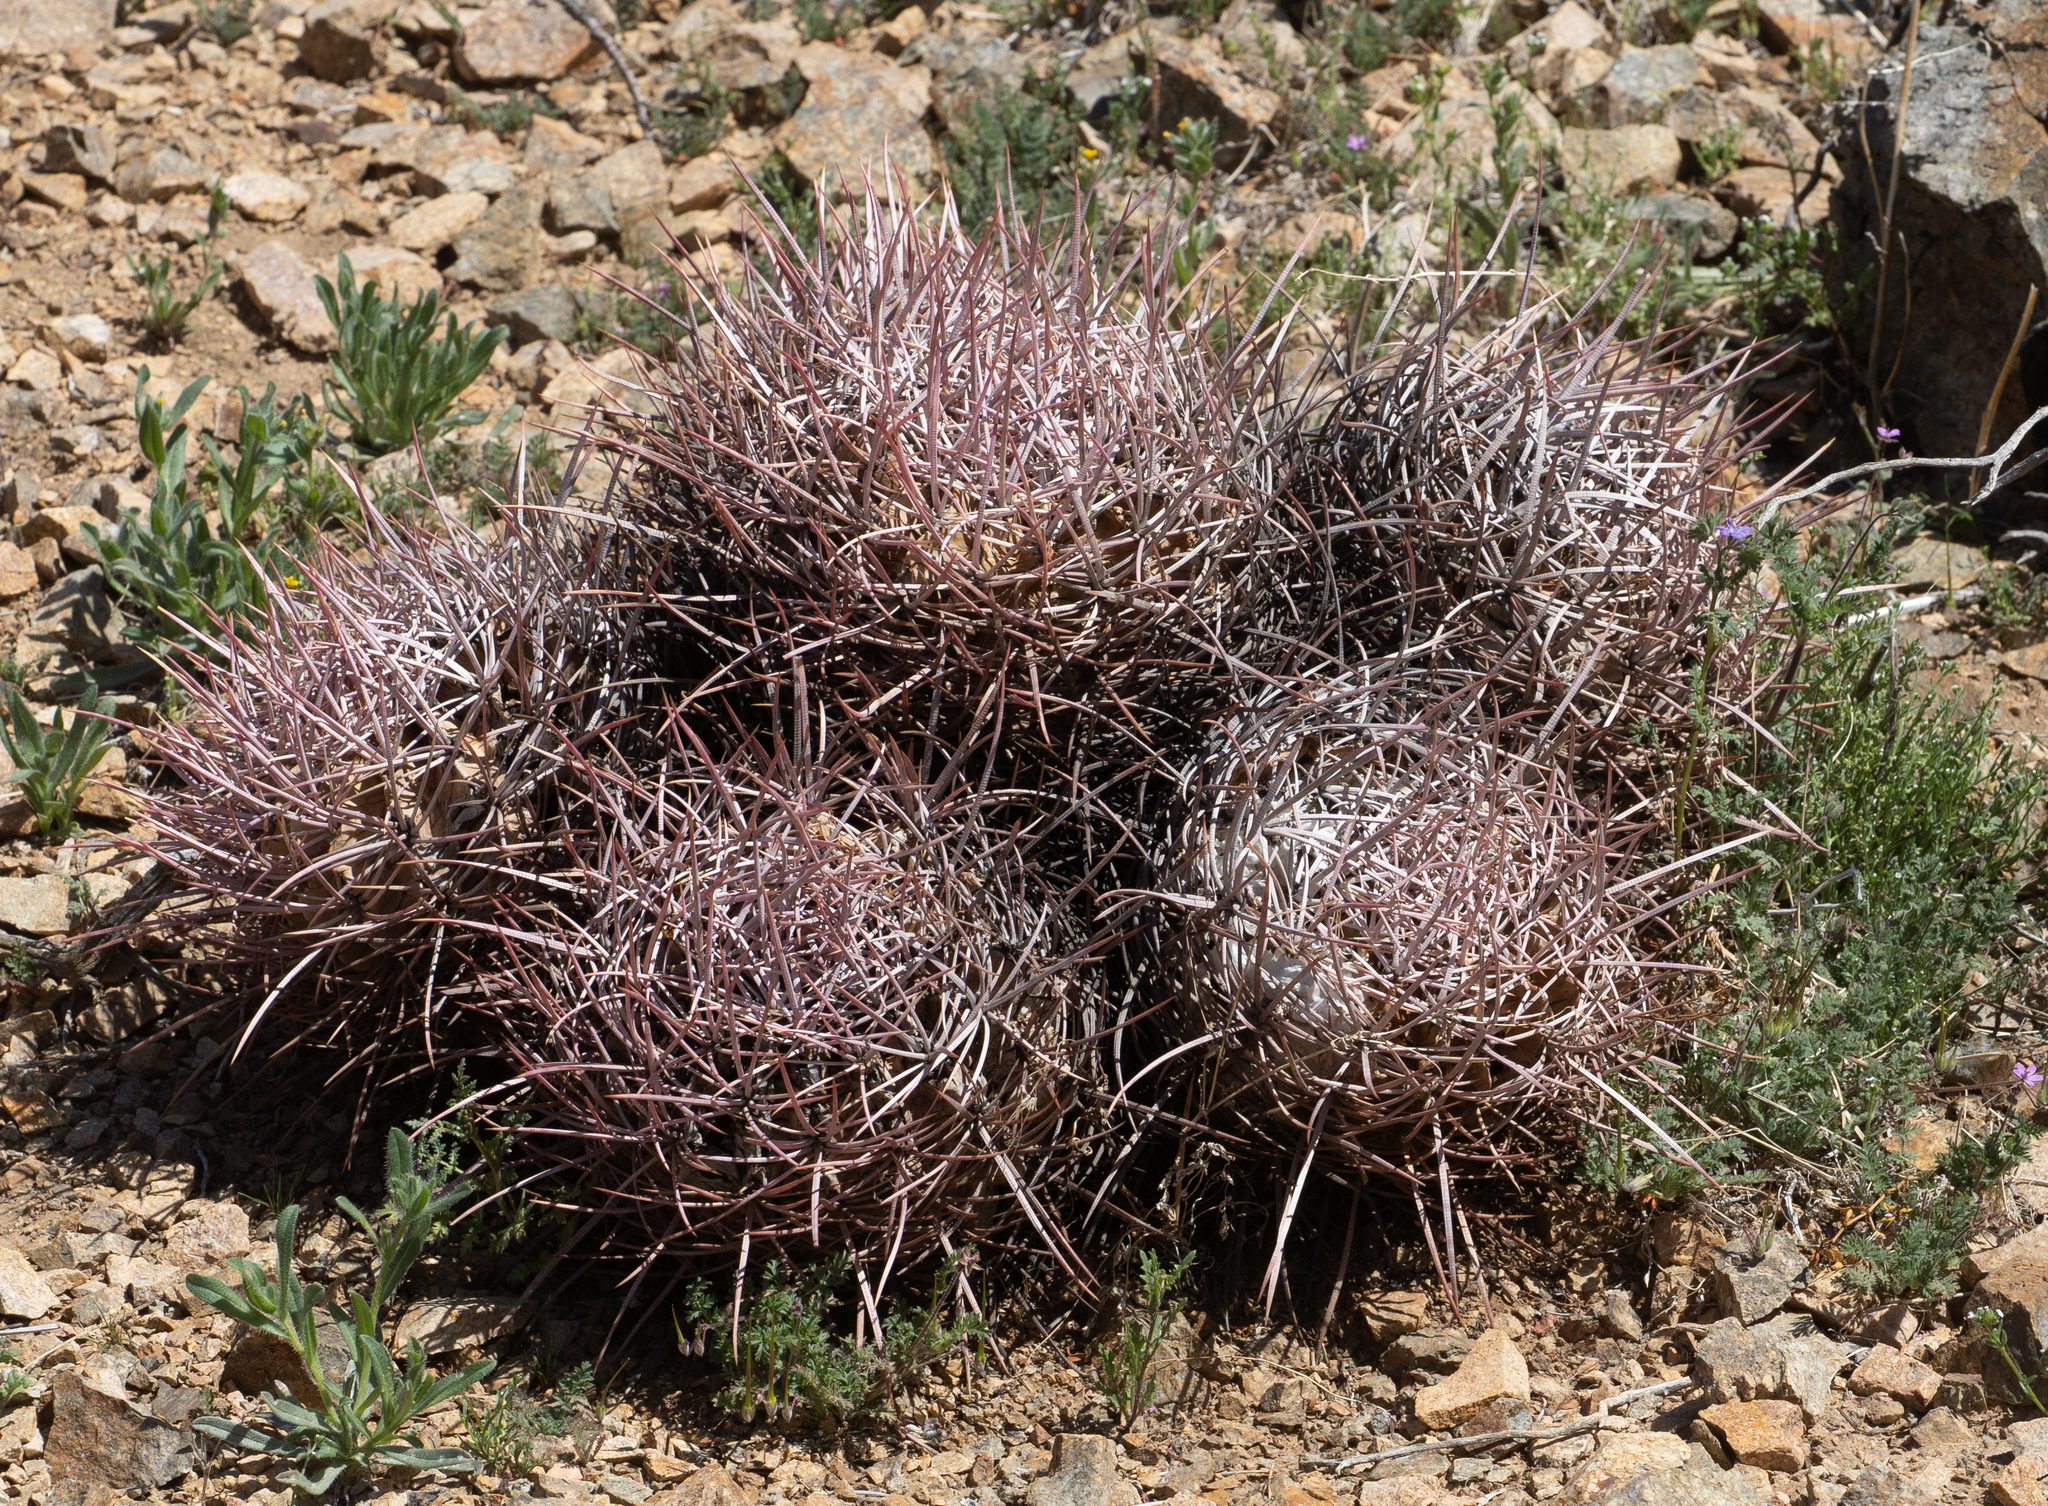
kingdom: Plantae
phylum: Tracheophyta
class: Magnoliopsida
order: Caryophyllales
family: Cactaceae
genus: Echinocactus
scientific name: Echinocactus polycephalus
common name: Cottontop cactus
